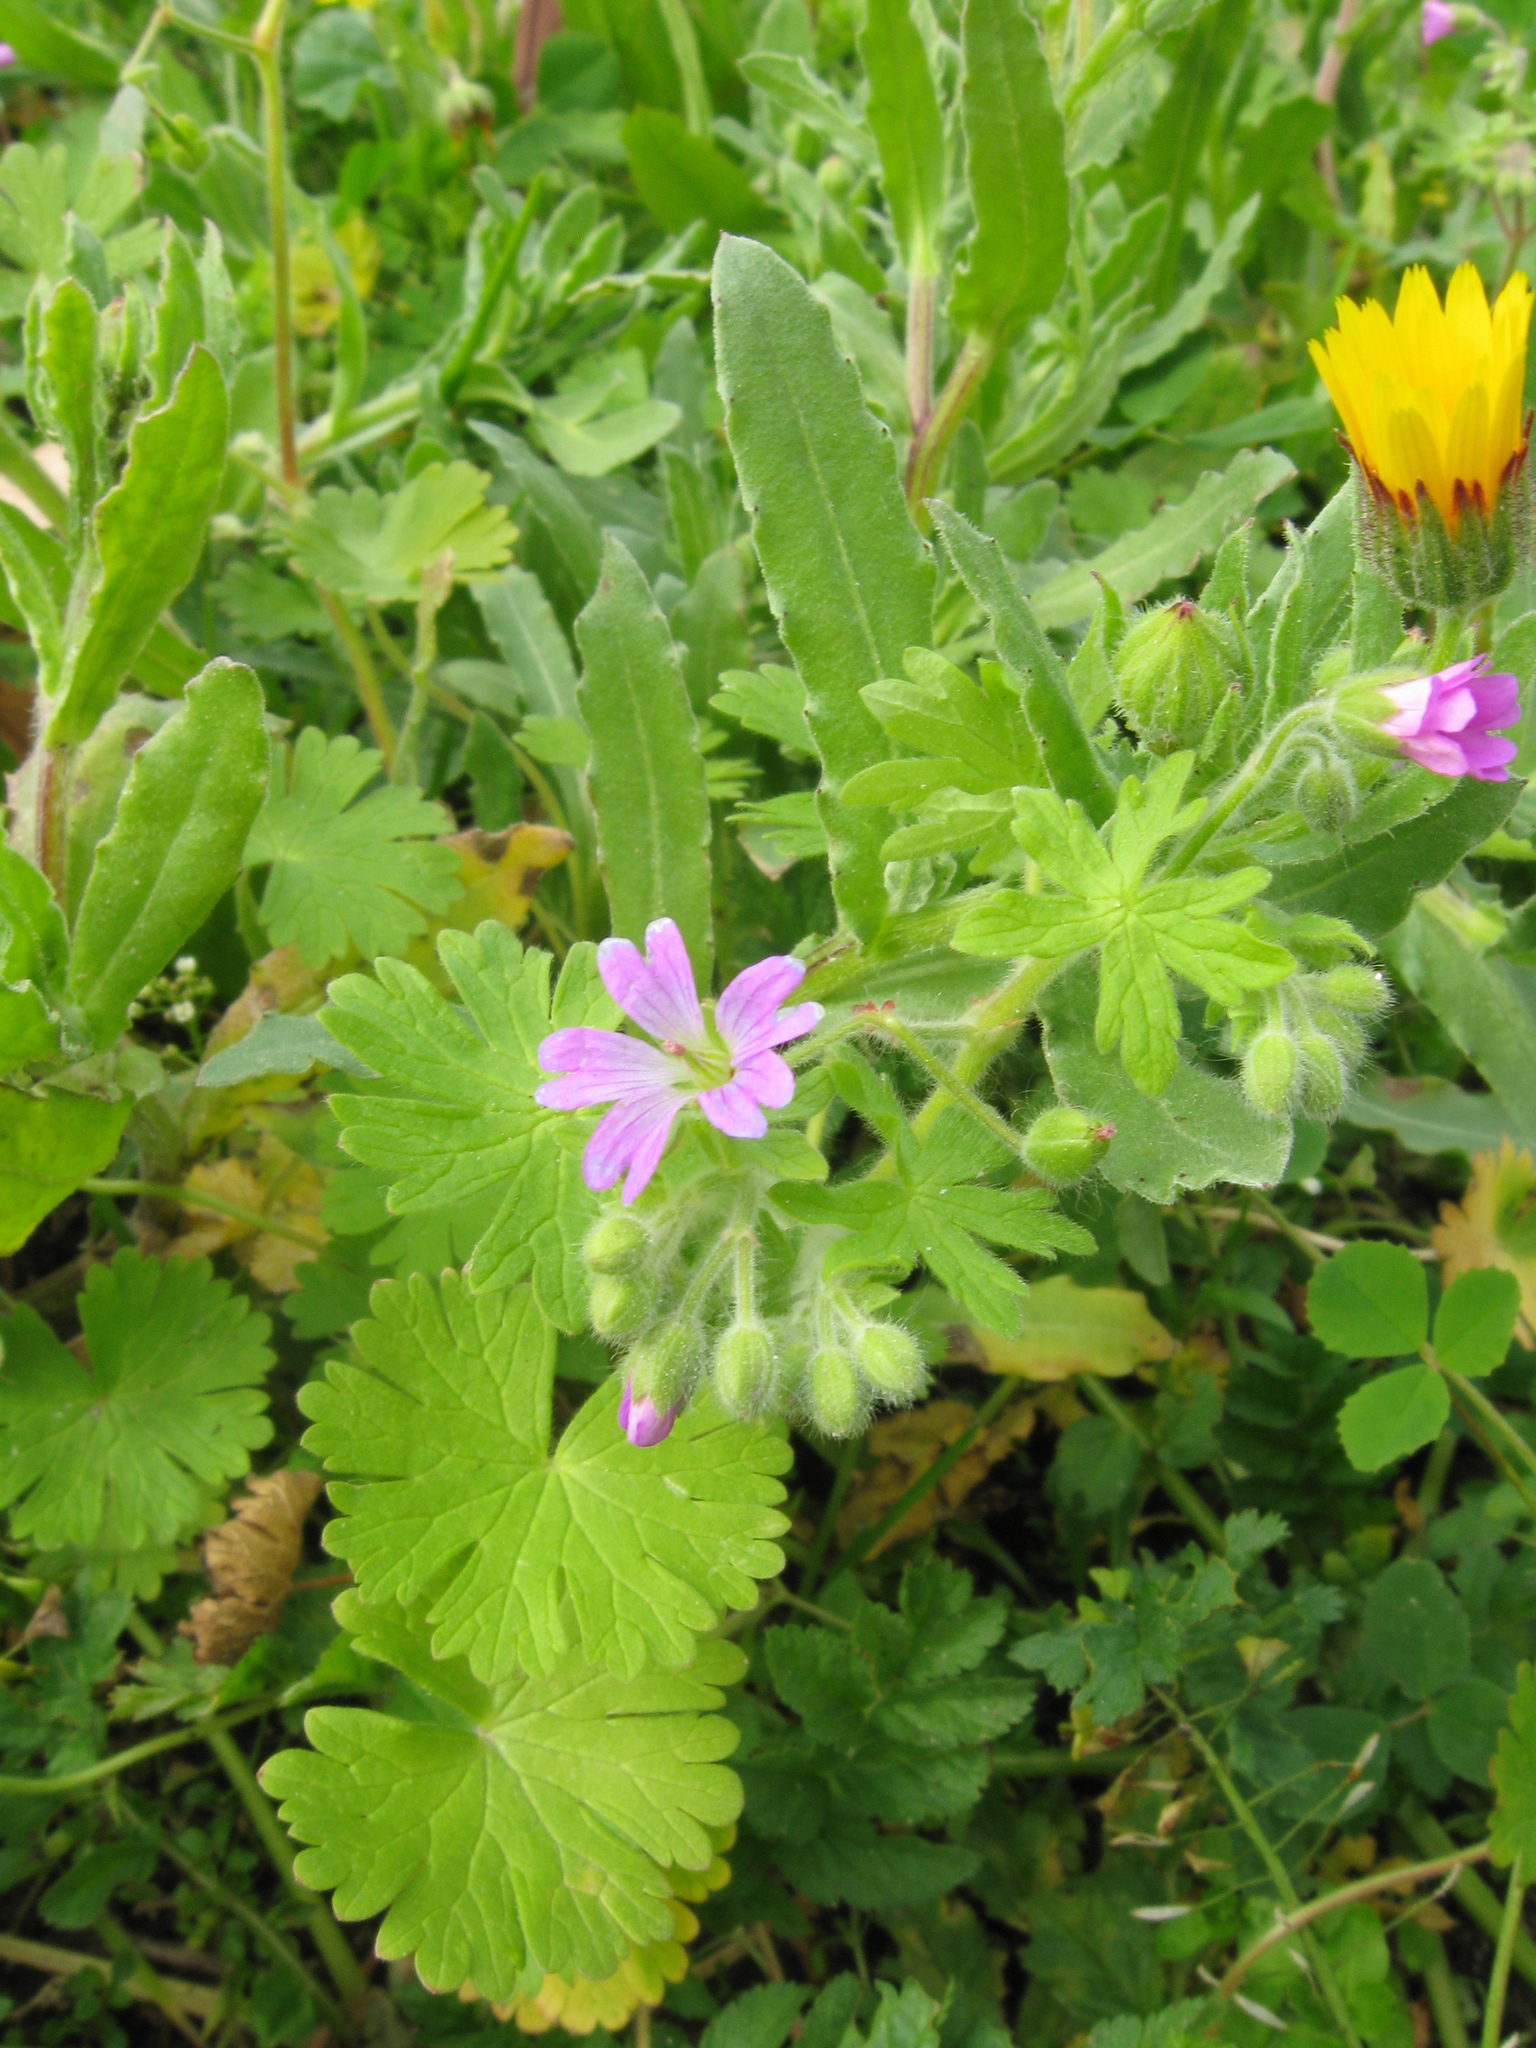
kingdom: Plantae
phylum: Tracheophyta
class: Magnoliopsida
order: Geraniales
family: Geraniaceae
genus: Geranium
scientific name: Geranium molle
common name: Dove's-foot crane's-bill
